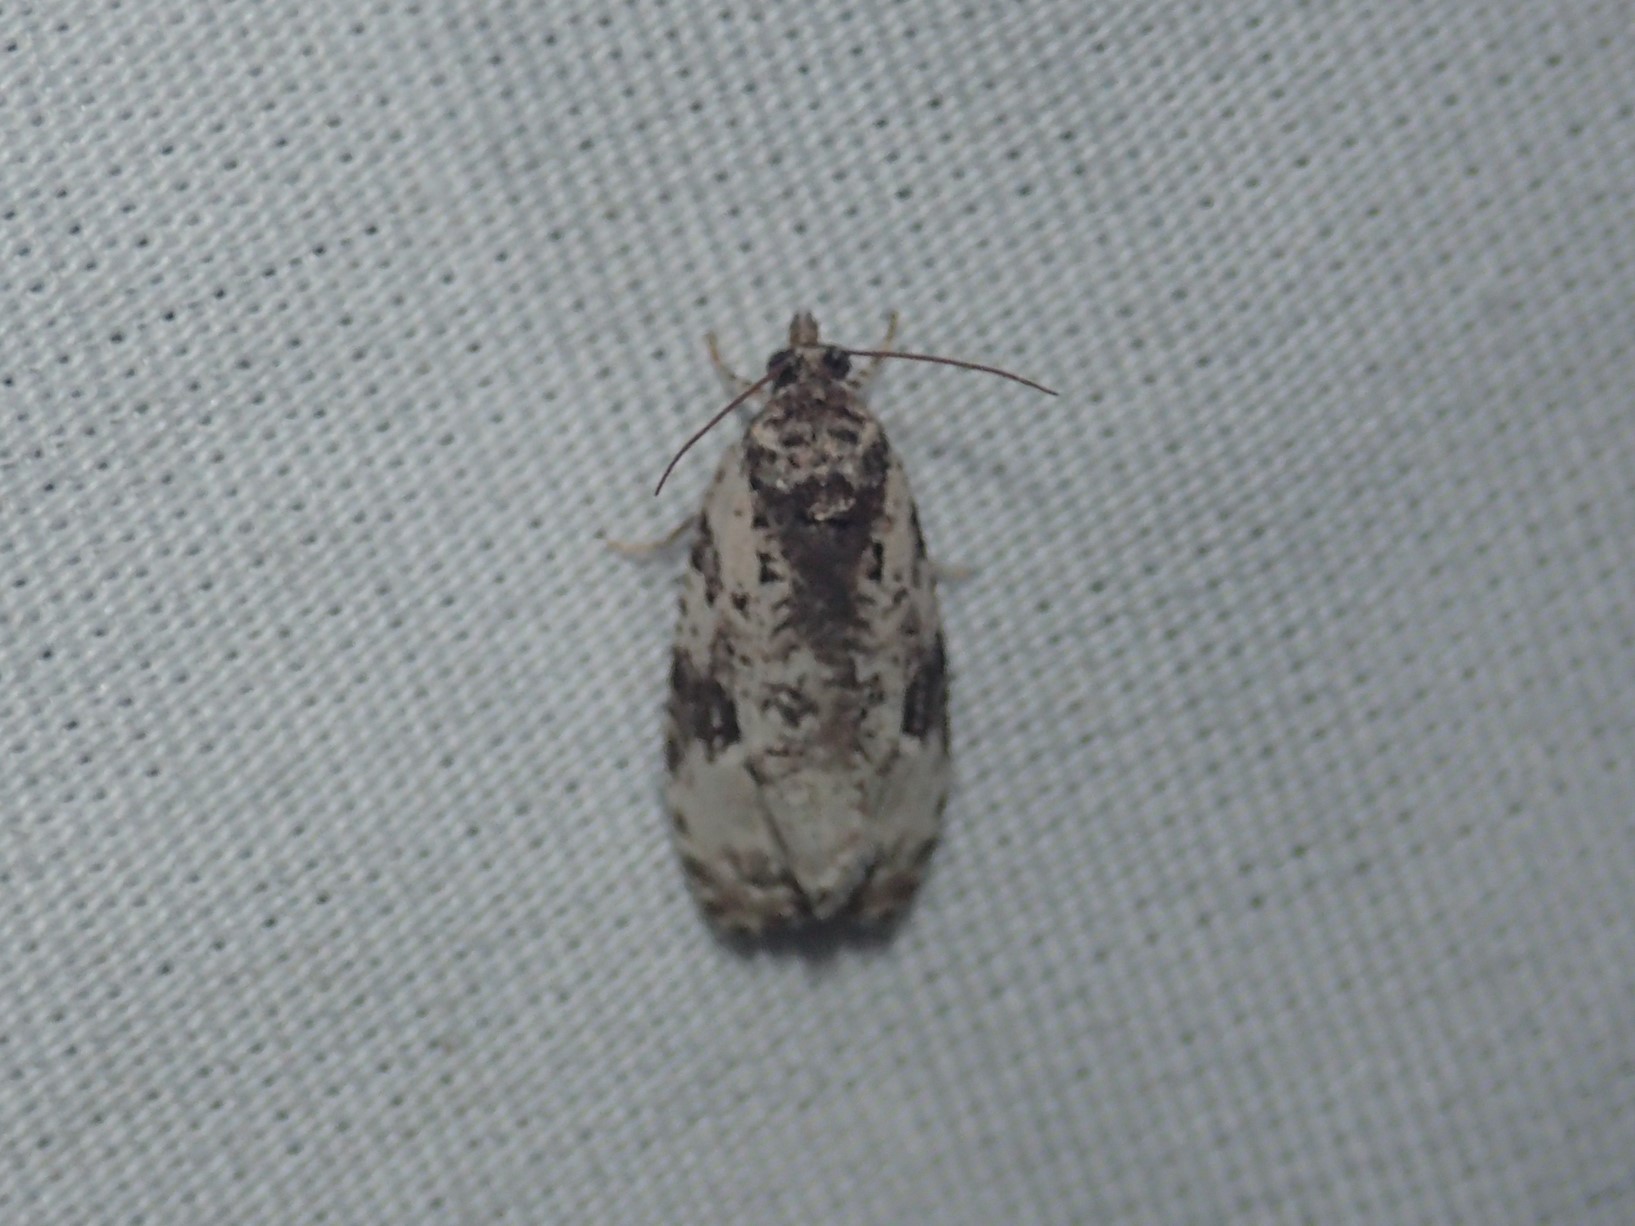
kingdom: Animalia
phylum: Arthropoda
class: Insecta
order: Lepidoptera
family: Tortricidae
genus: Apotomis
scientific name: Apotomis albeolana
